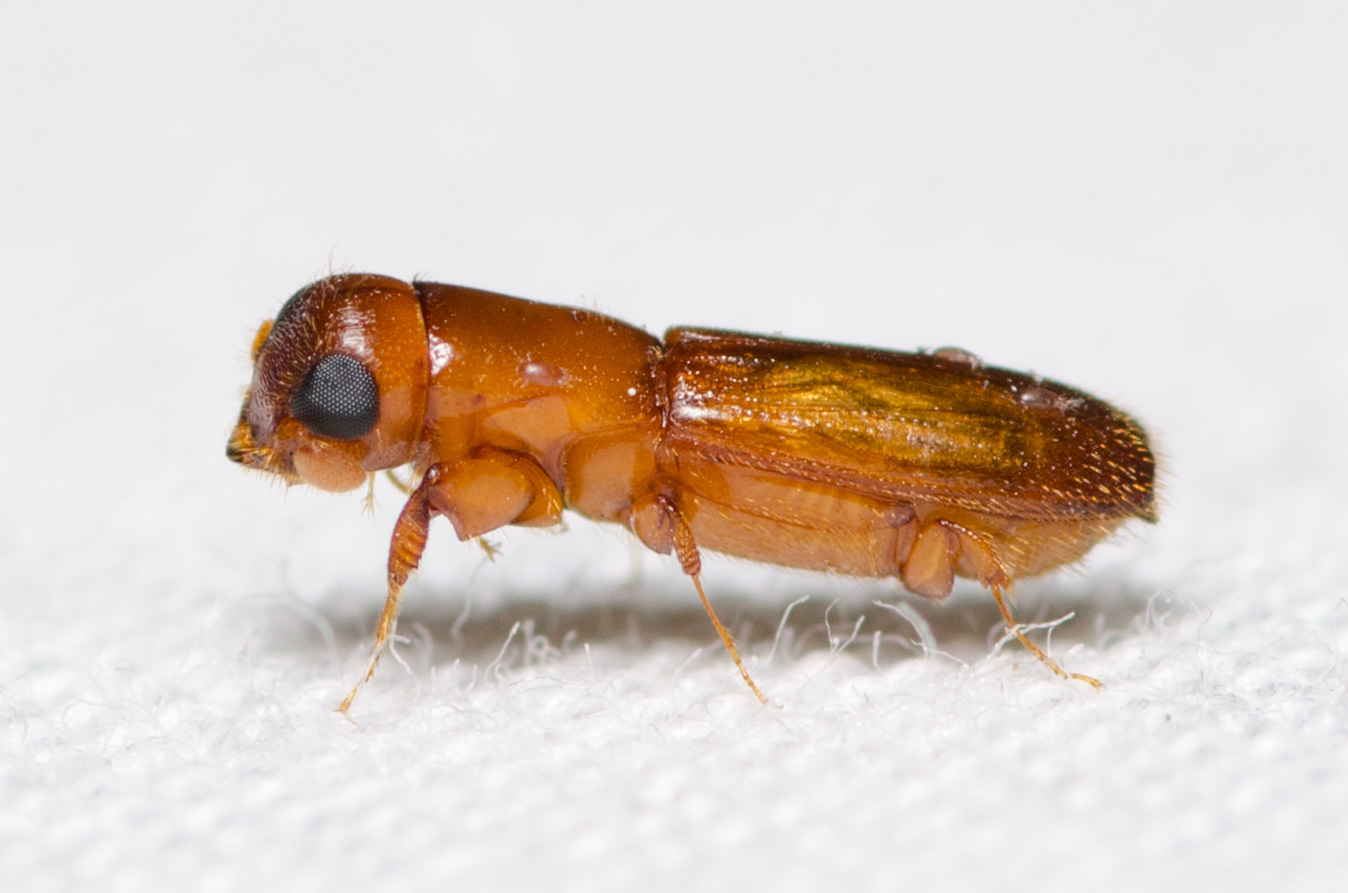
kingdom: Animalia
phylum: Arthropoda
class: Insecta
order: Coleoptera
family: Curculionidae
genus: Euplatypus
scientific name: Euplatypus compositus
